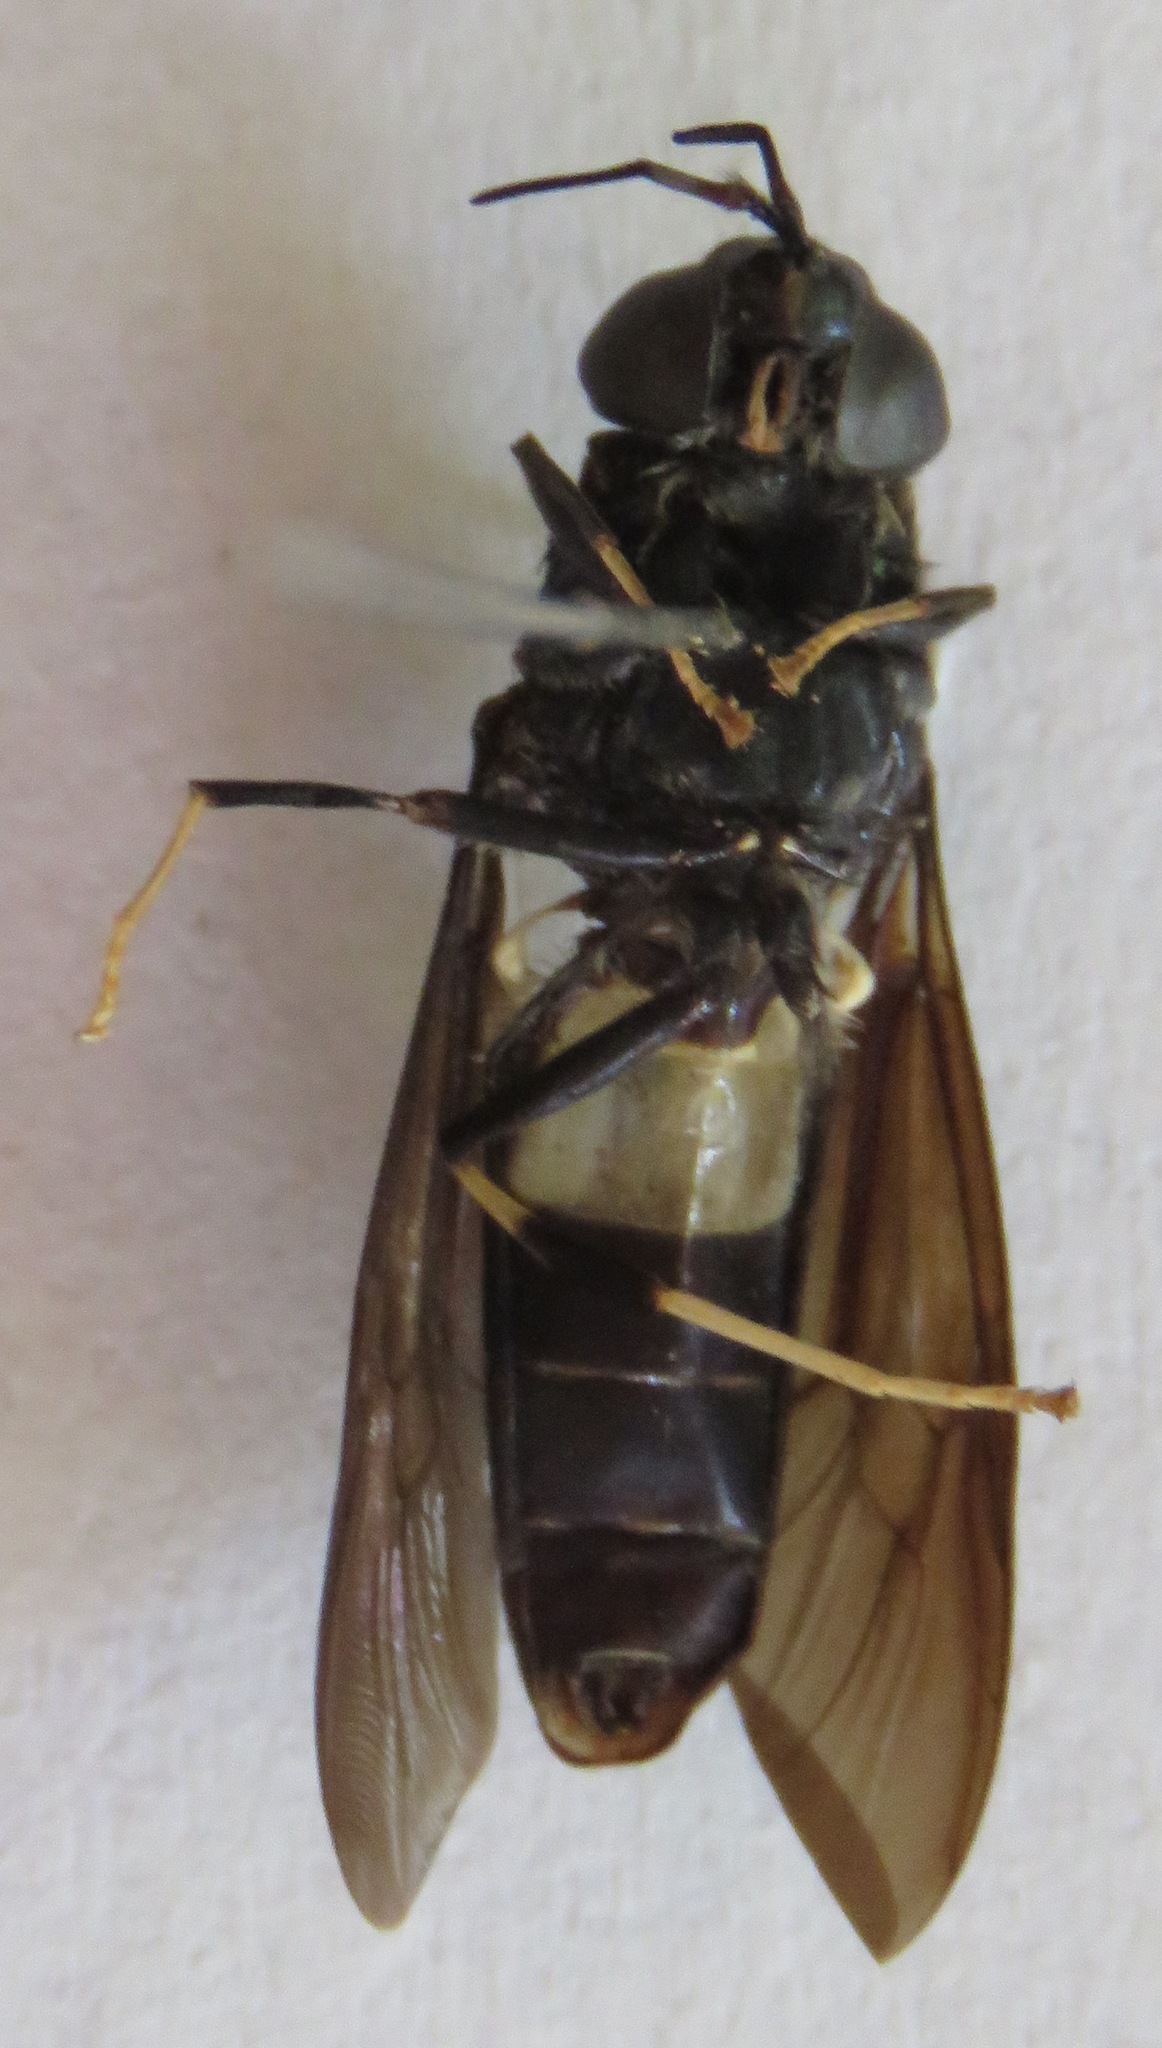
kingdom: Animalia
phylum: Arthropoda
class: Insecta
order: Diptera
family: Stratiomyidae
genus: Hermetia
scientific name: Hermetia illucens
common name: Black soldier fly
